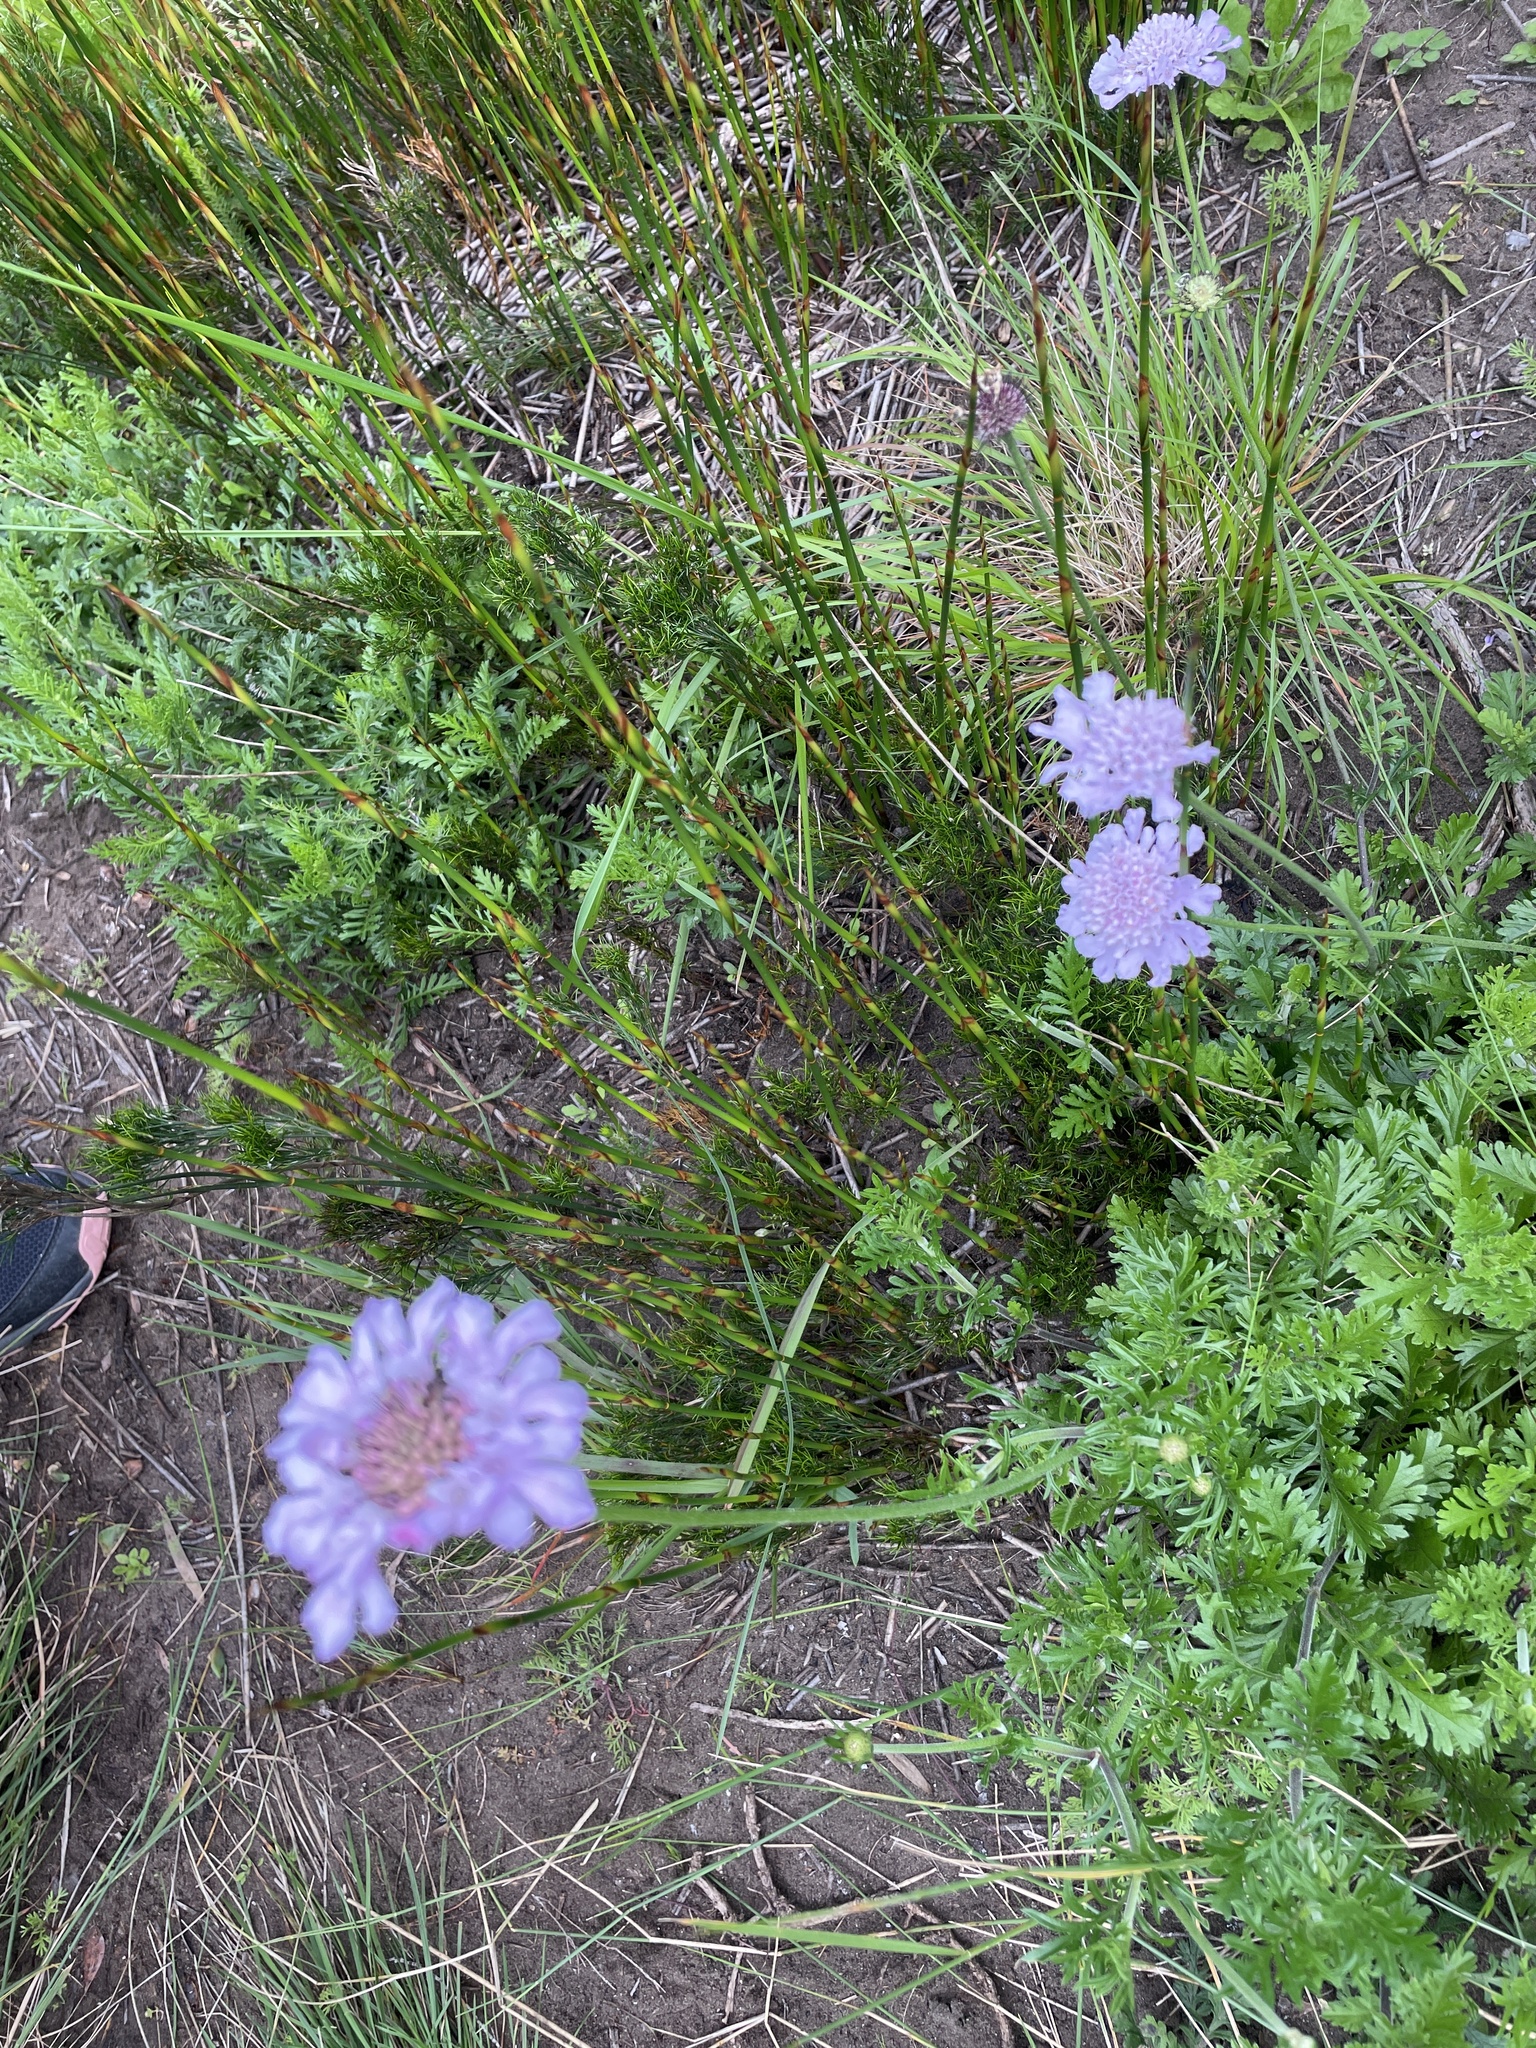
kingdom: Plantae
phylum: Tracheophyta
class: Magnoliopsida
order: Dipsacales
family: Caprifoliaceae
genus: Scabiosa
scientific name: Scabiosa incisa
